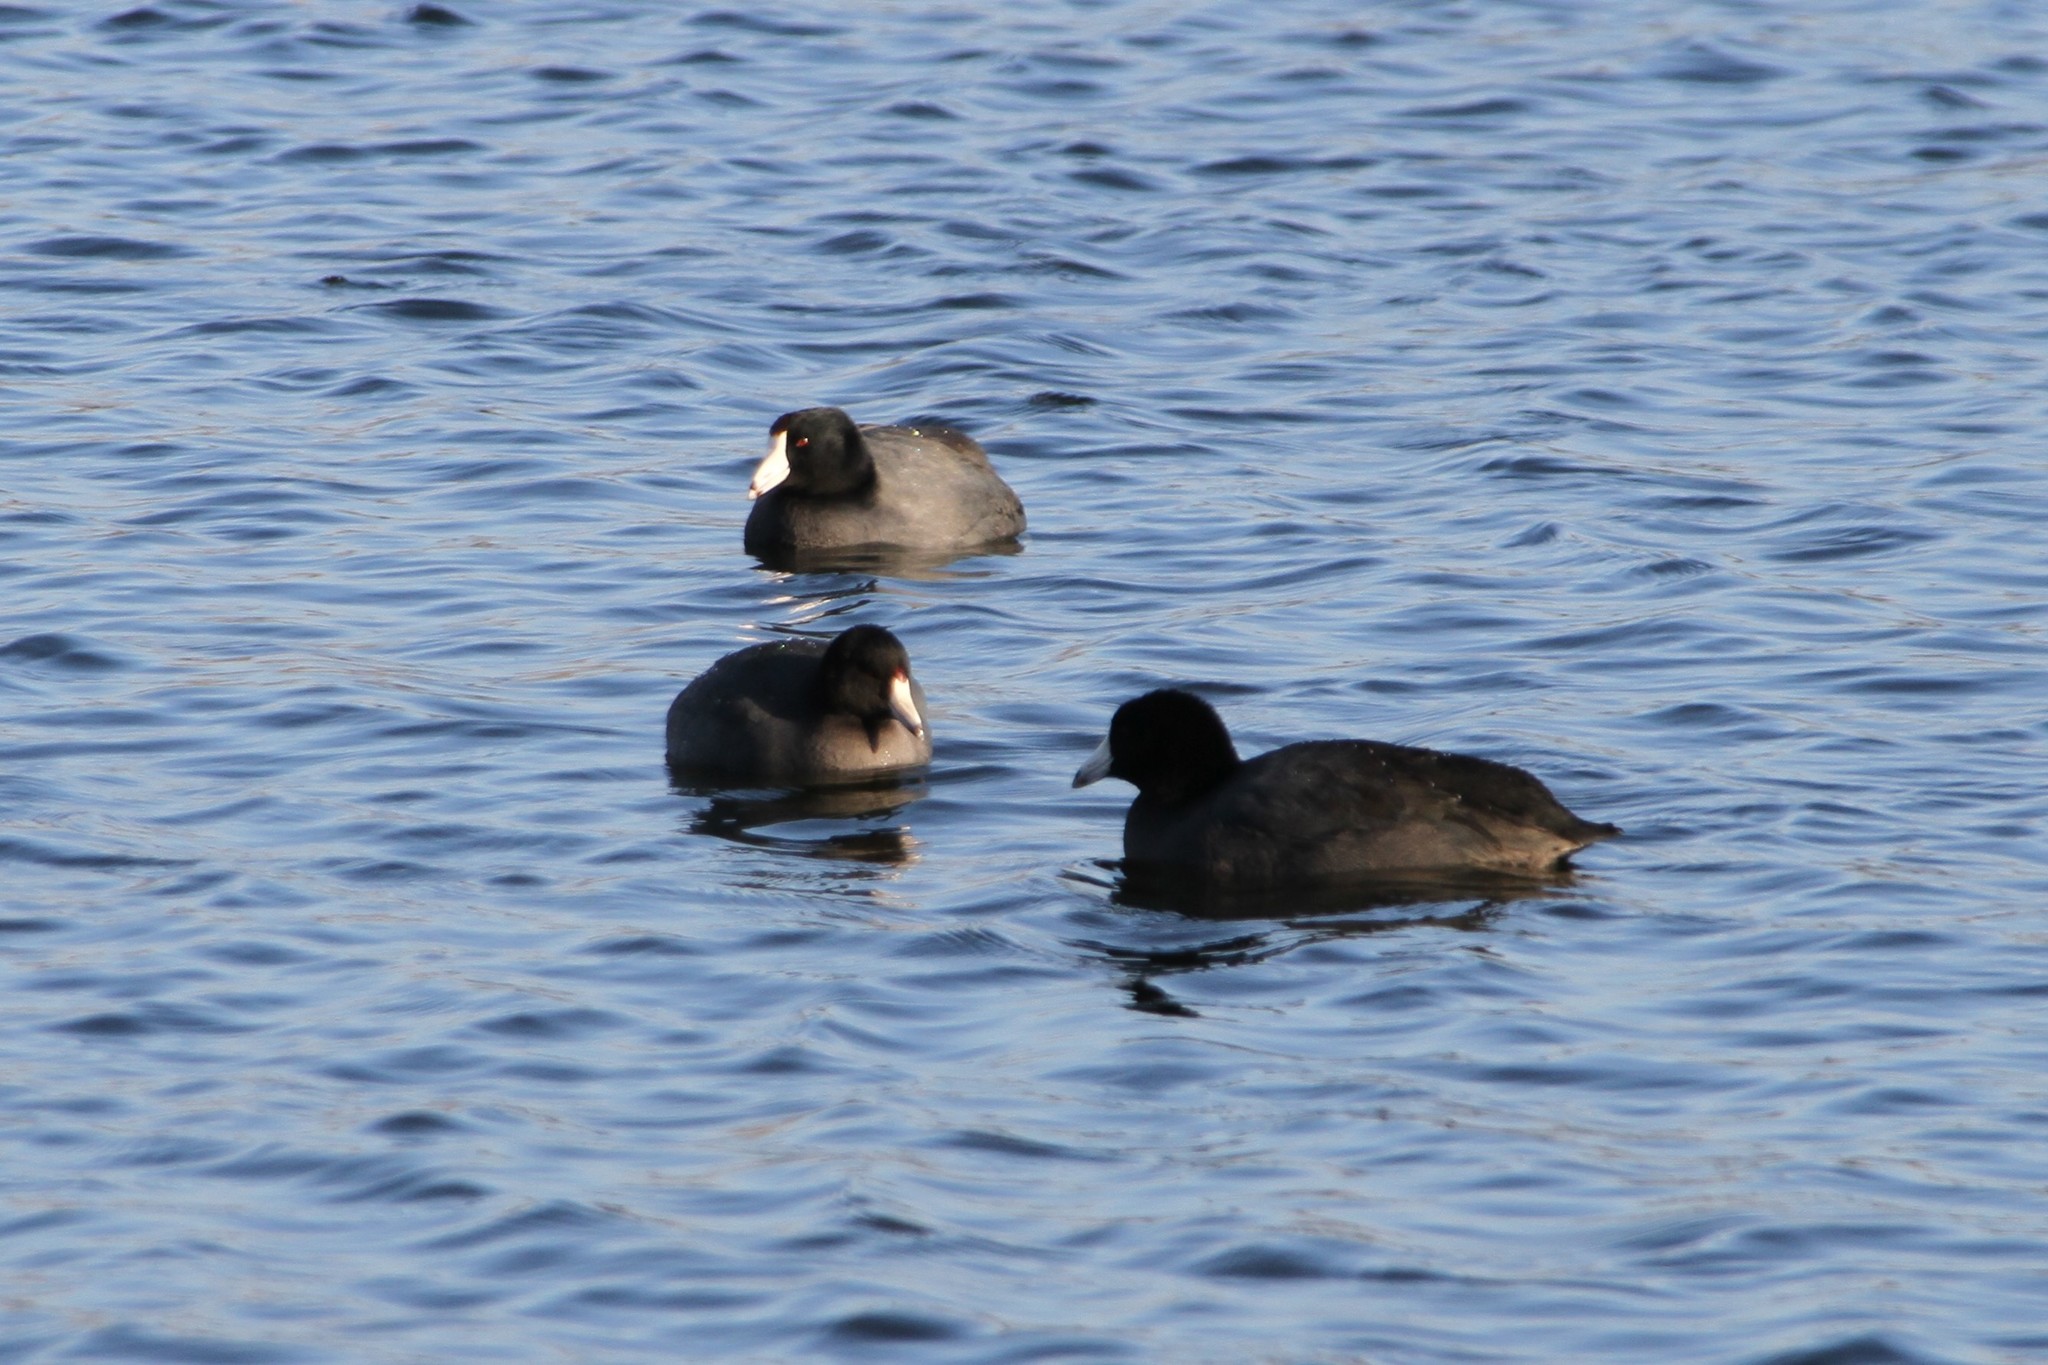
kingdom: Animalia
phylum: Chordata
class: Aves
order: Gruiformes
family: Rallidae
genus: Fulica
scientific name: Fulica americana
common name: American coot
